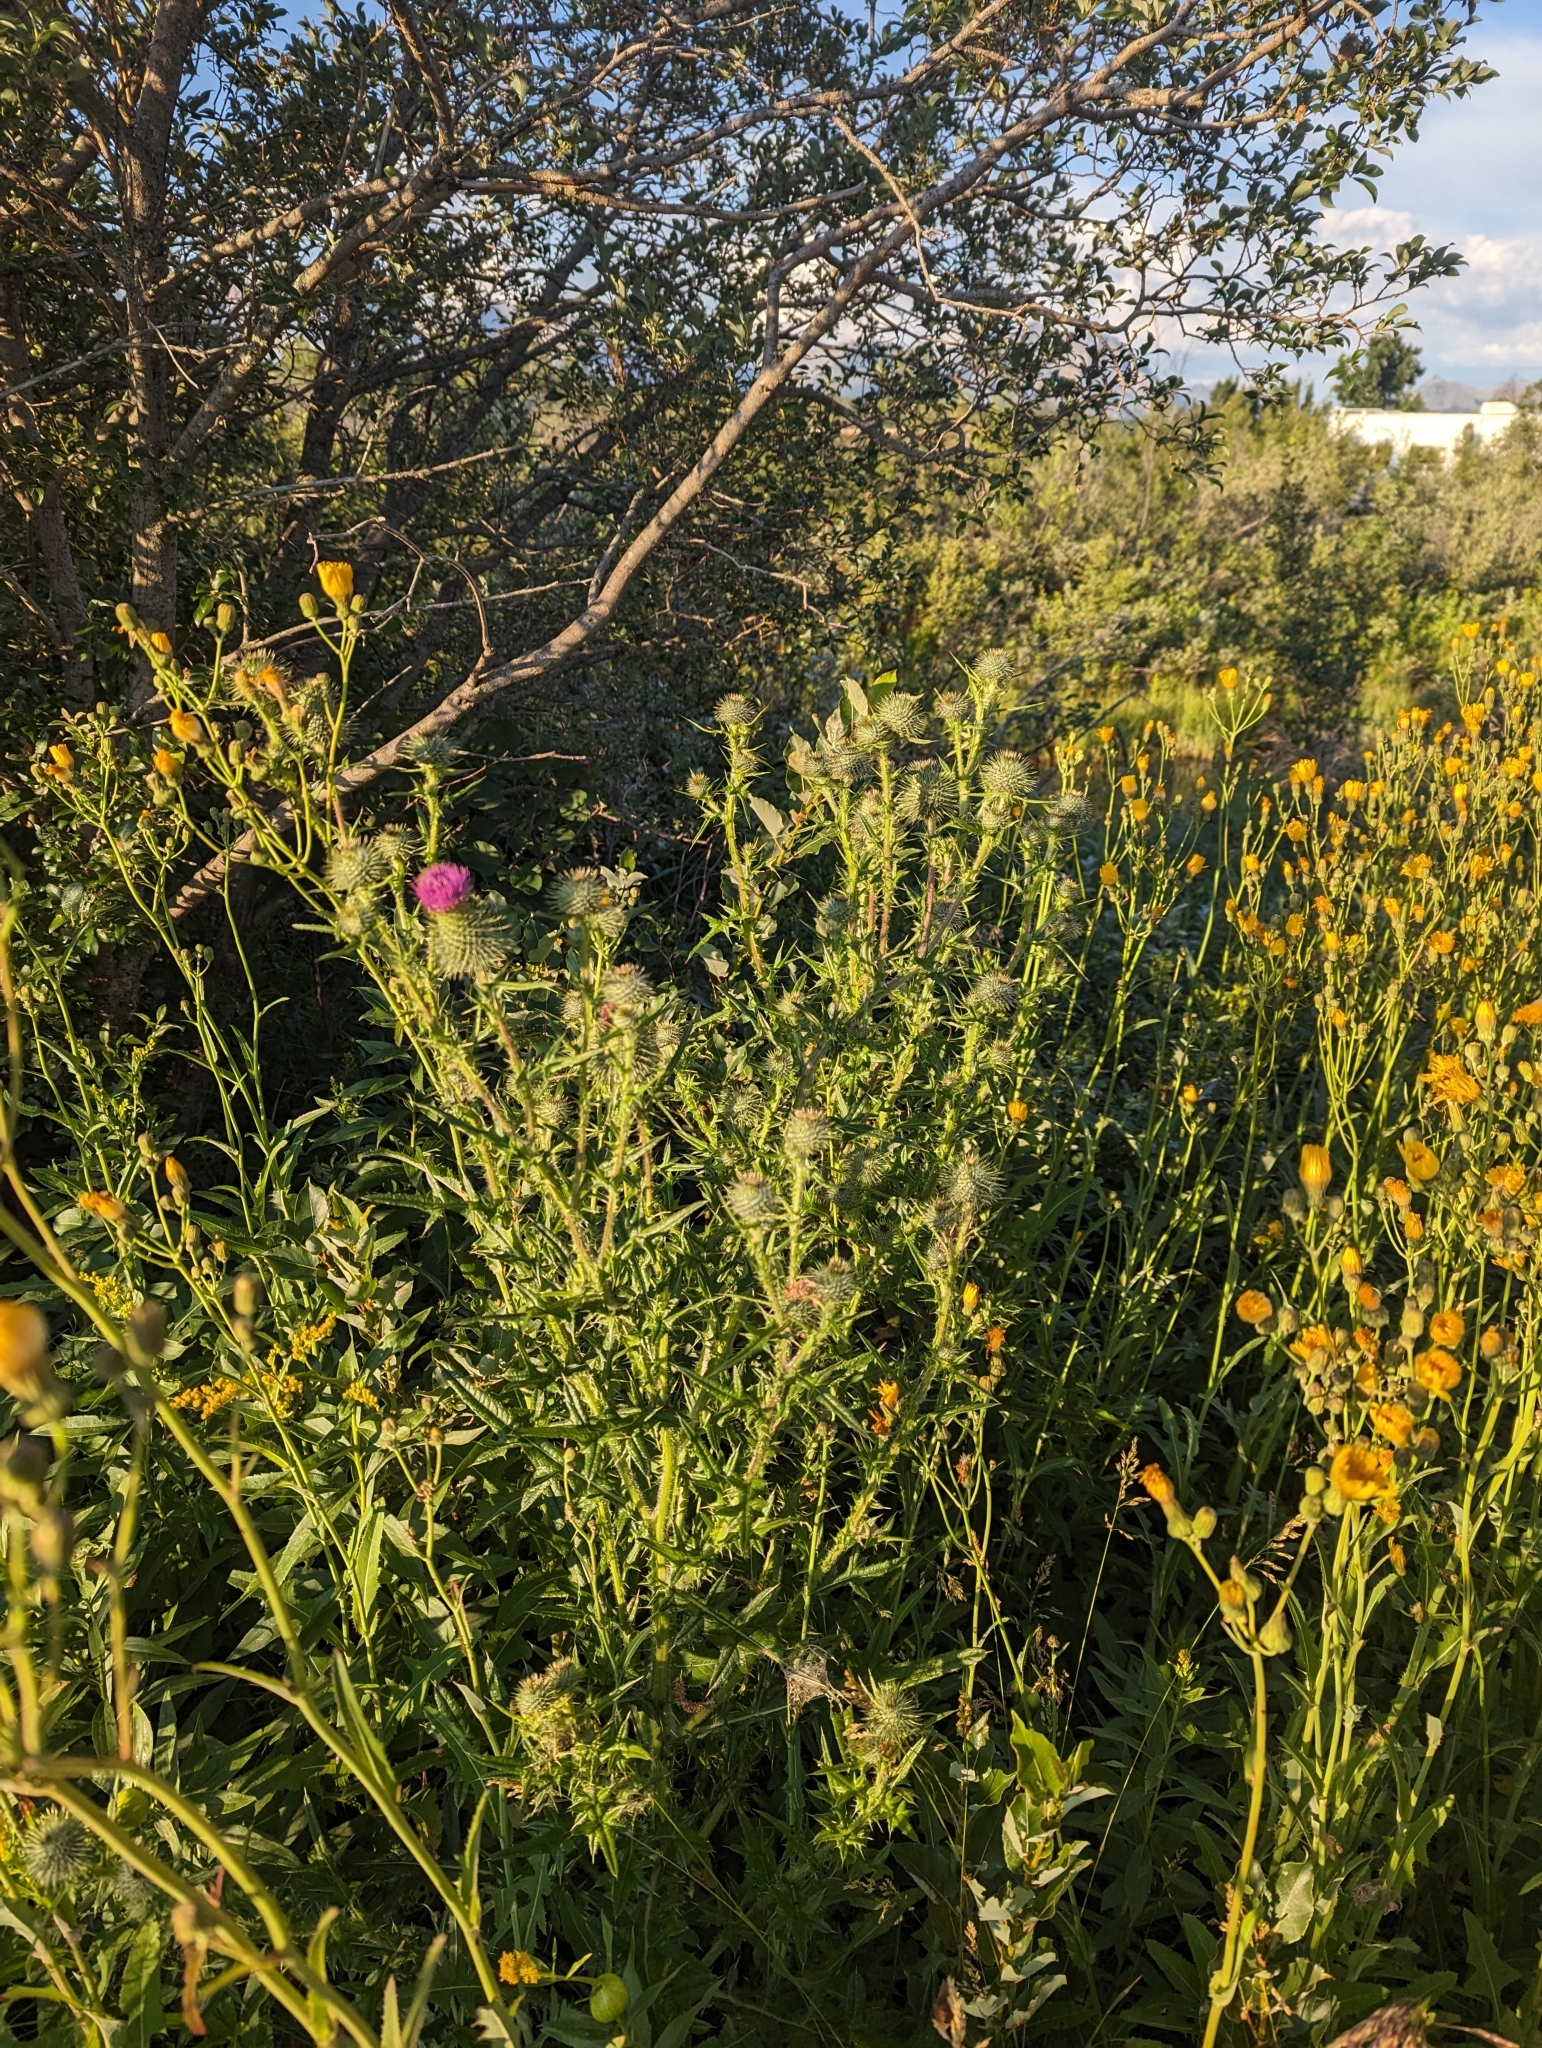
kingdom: Plantae
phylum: Tracheophyta
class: Magnoliopsida
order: Asterales
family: Asteraceae
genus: Cirsium
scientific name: Cirsium vulgare
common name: Bull thistle
